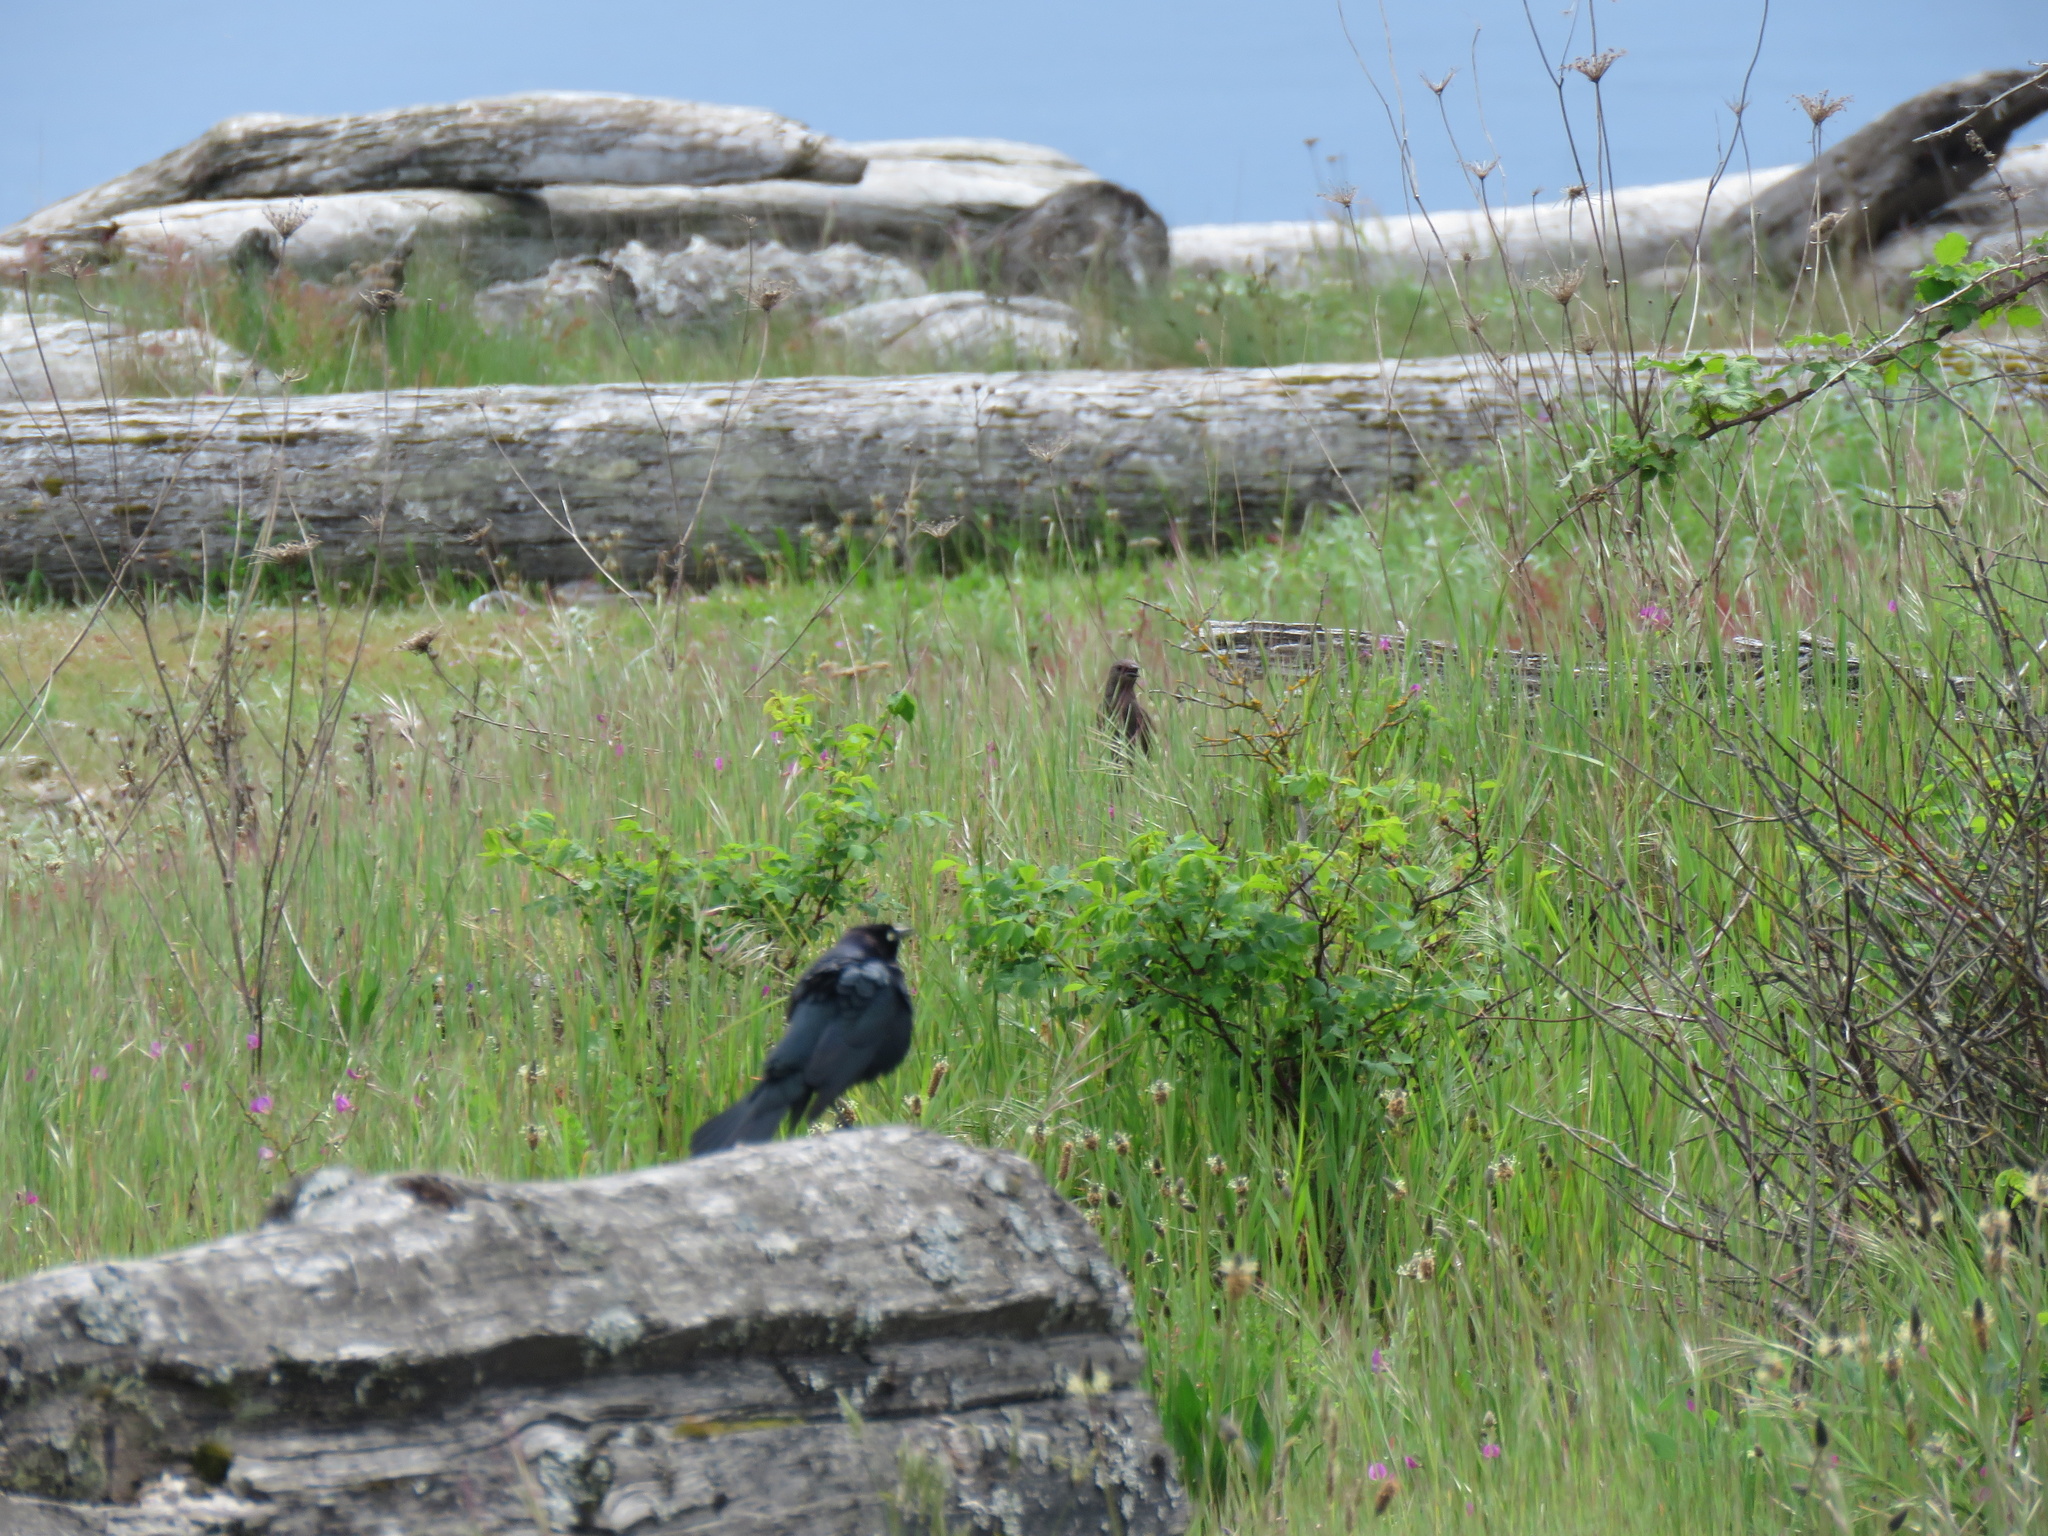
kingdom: Animalia
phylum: Chordata
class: Aves
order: Passeriformes
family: Icteridae
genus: Euphagus
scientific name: Euphagus cyanocephalus
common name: Brewer's blackbird
